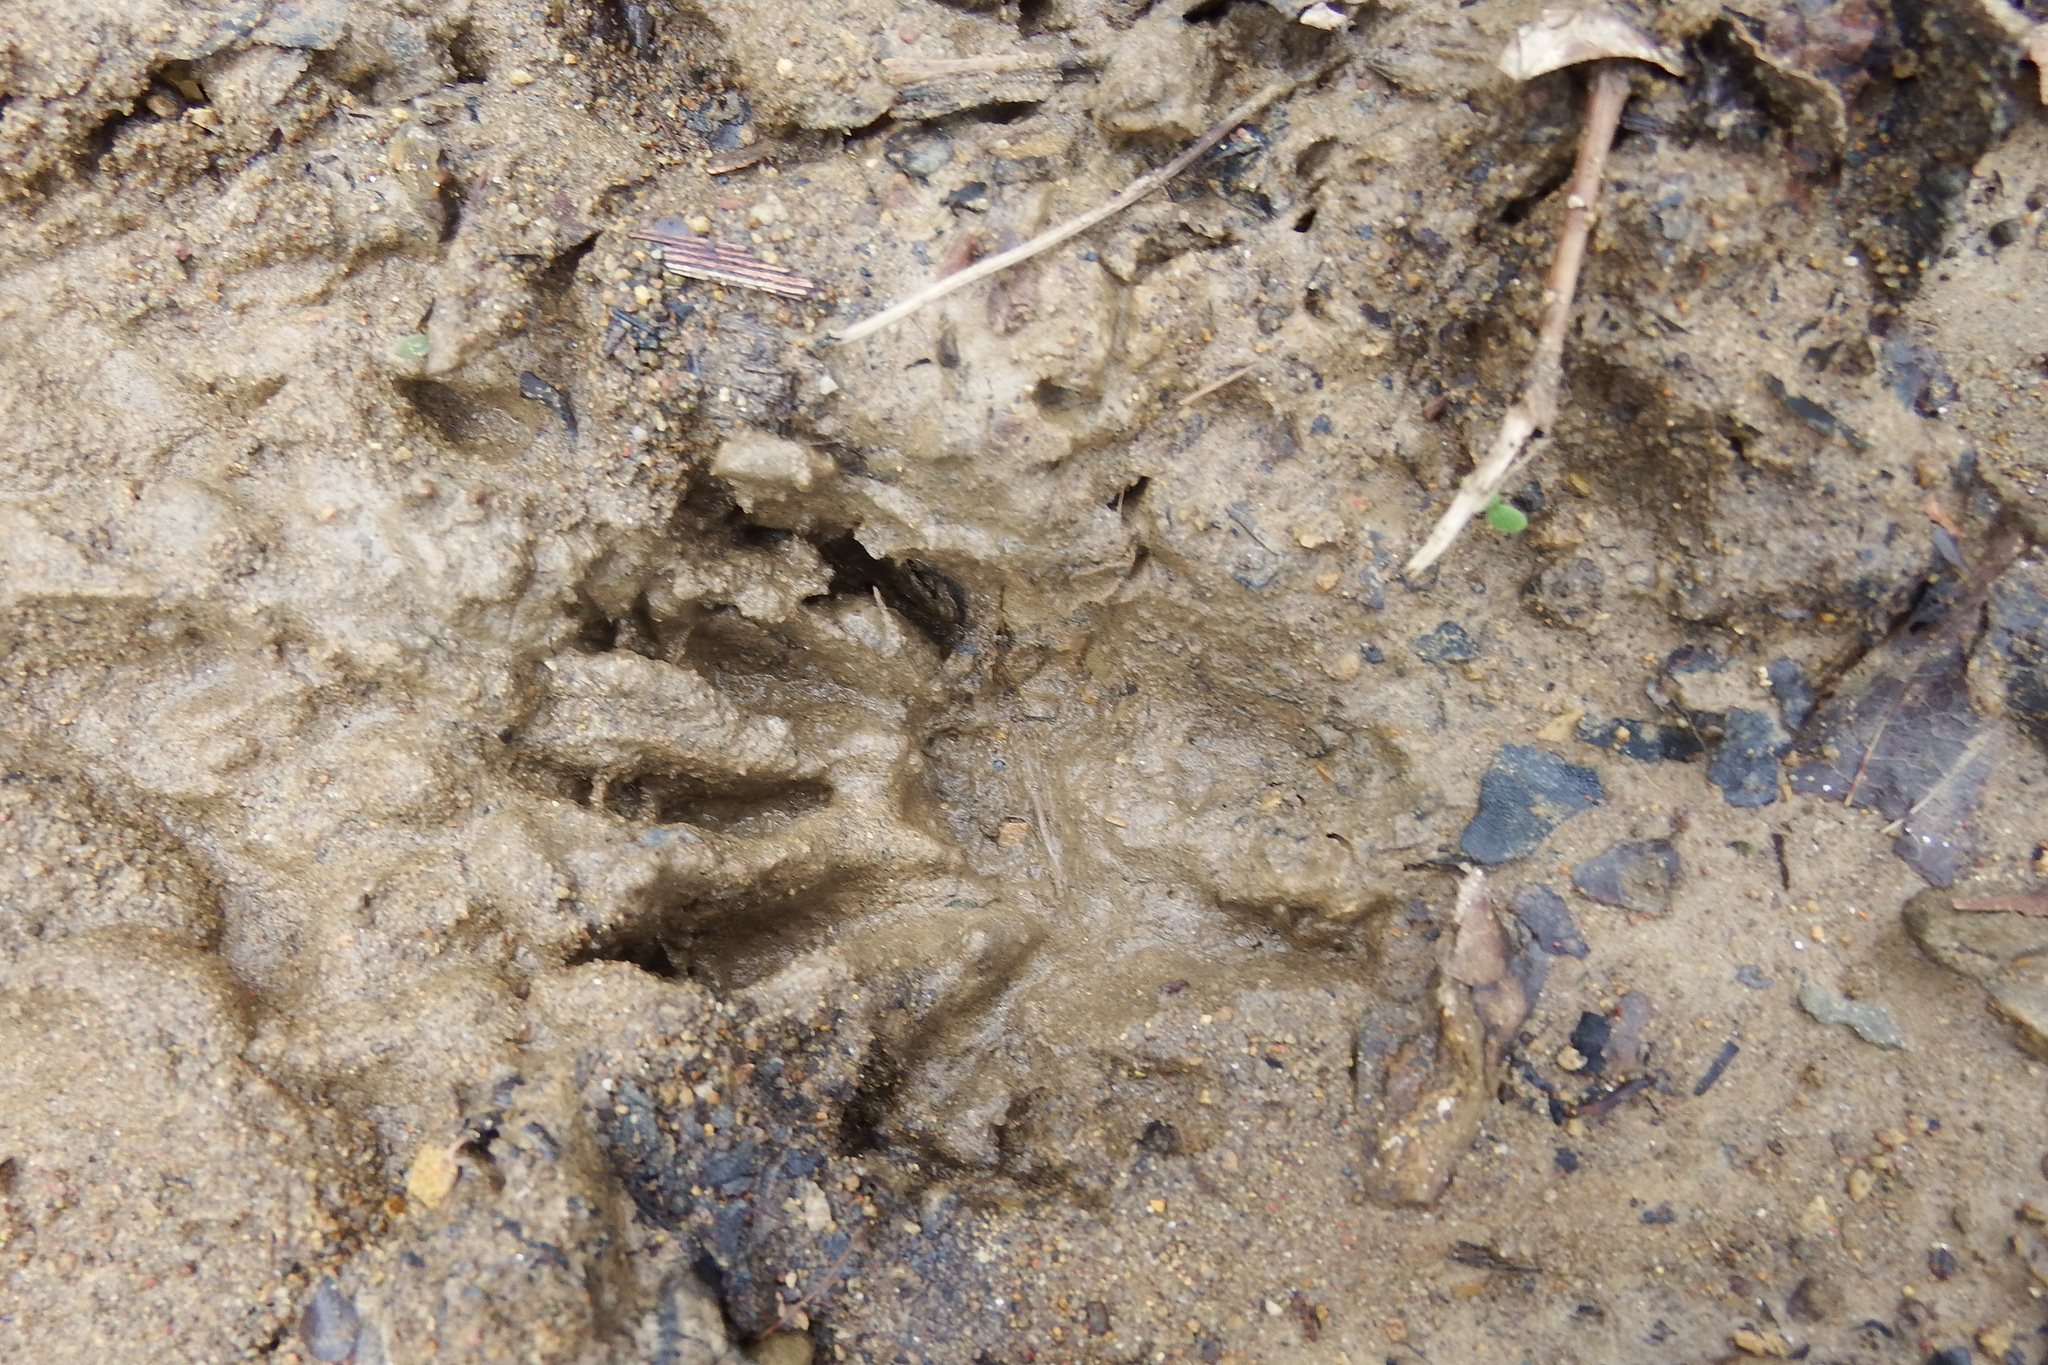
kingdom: Animalia
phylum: Chordata
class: Mammalia
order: Carnivora
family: Procyonidae
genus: Procyon
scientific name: Procyon lotor
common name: Raccoon
